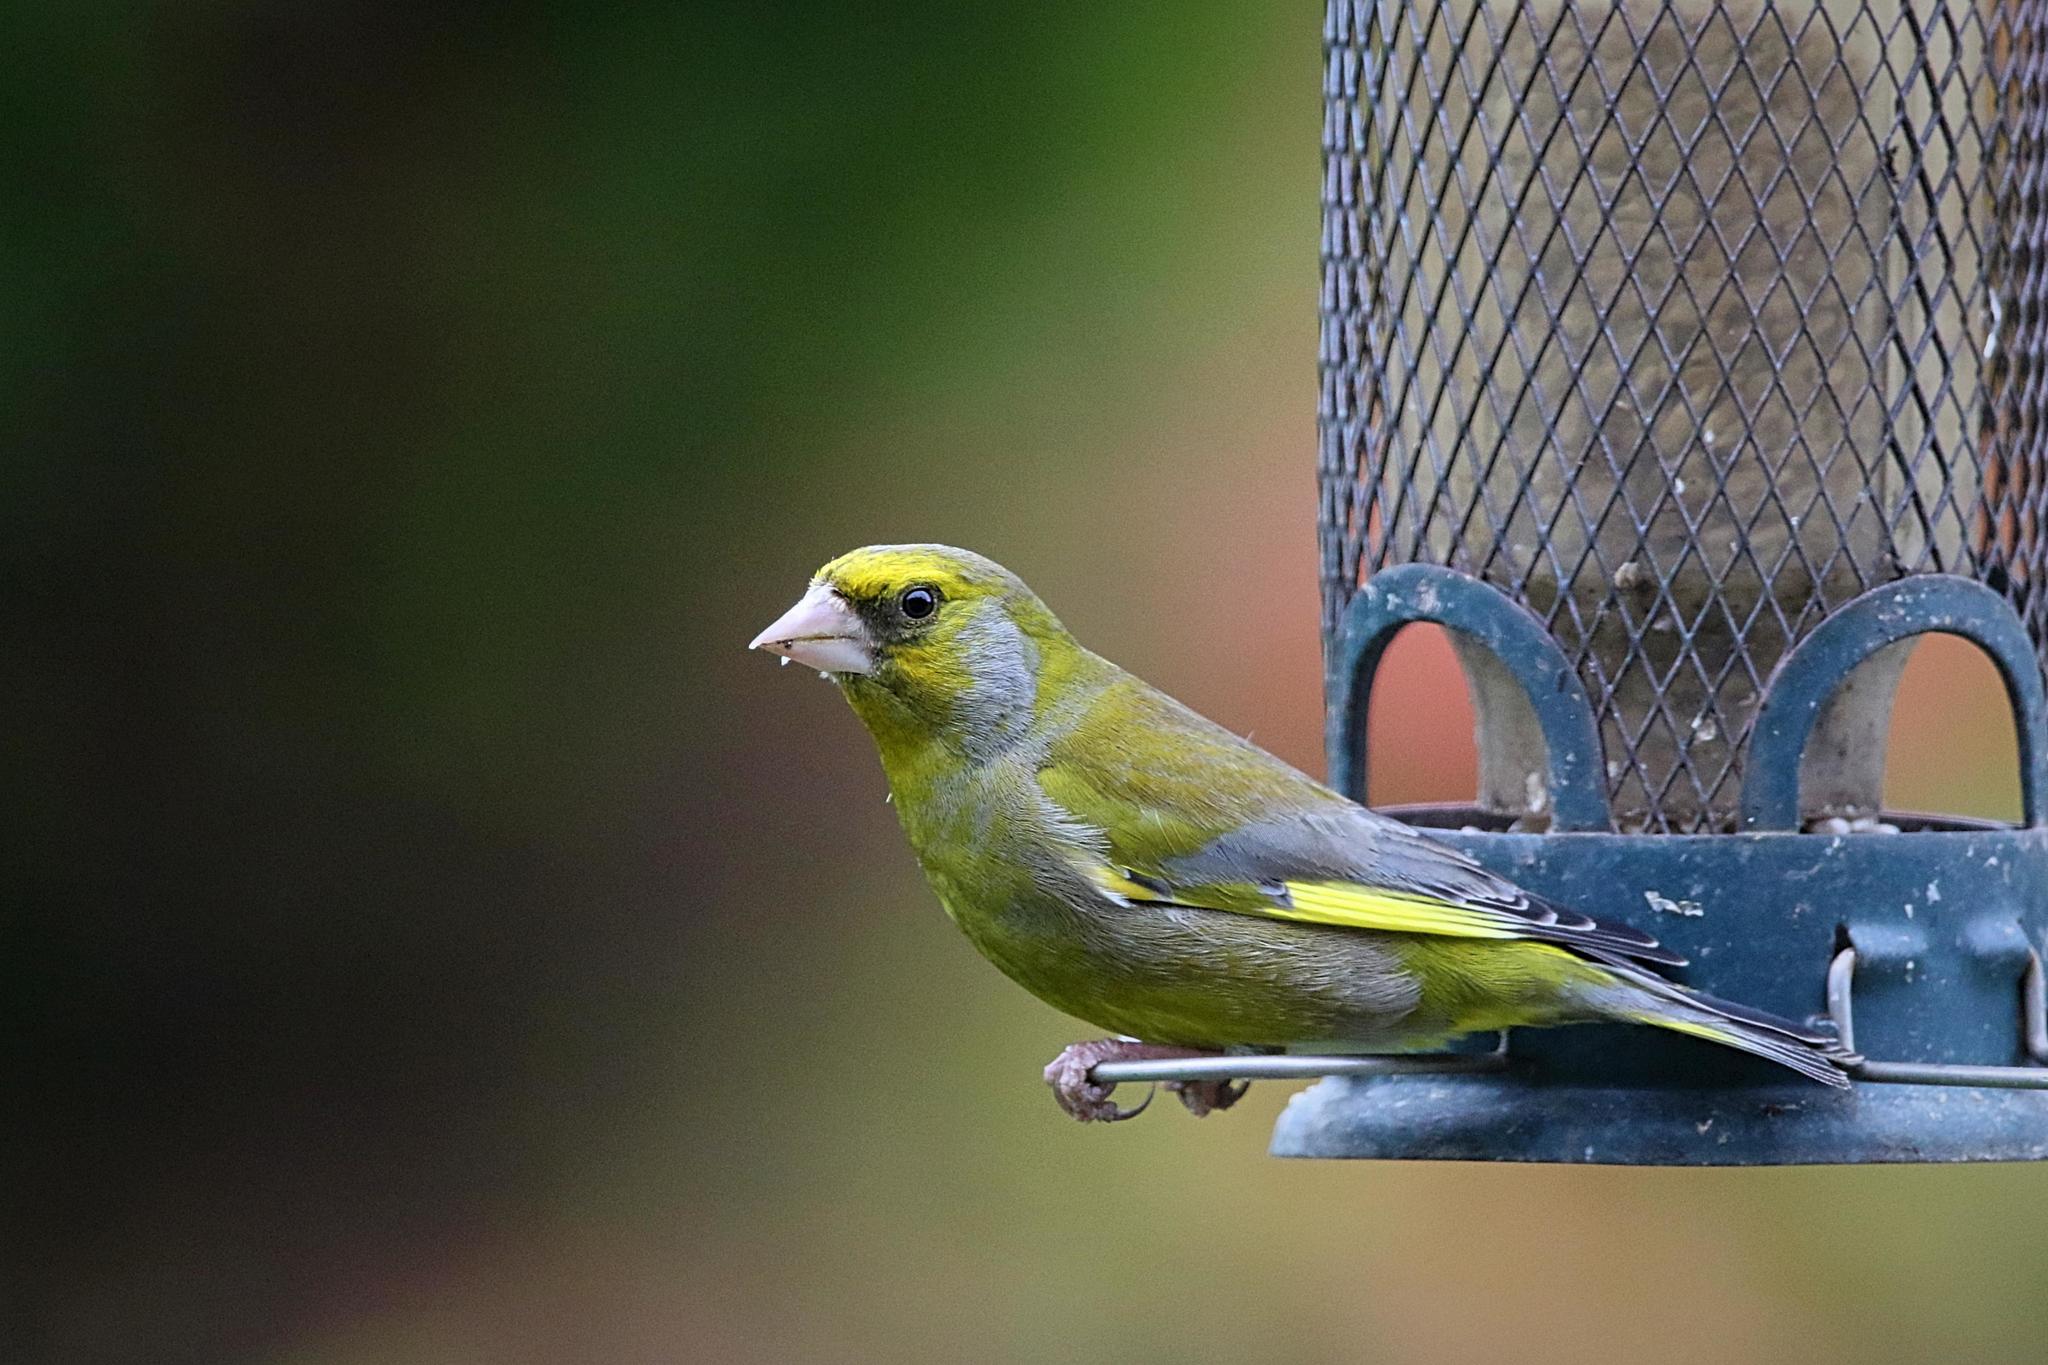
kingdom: Plantae
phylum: Tracheophyta
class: Liliopsida
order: Poales
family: Poaceae
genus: Chloris
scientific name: Chloris chloris
